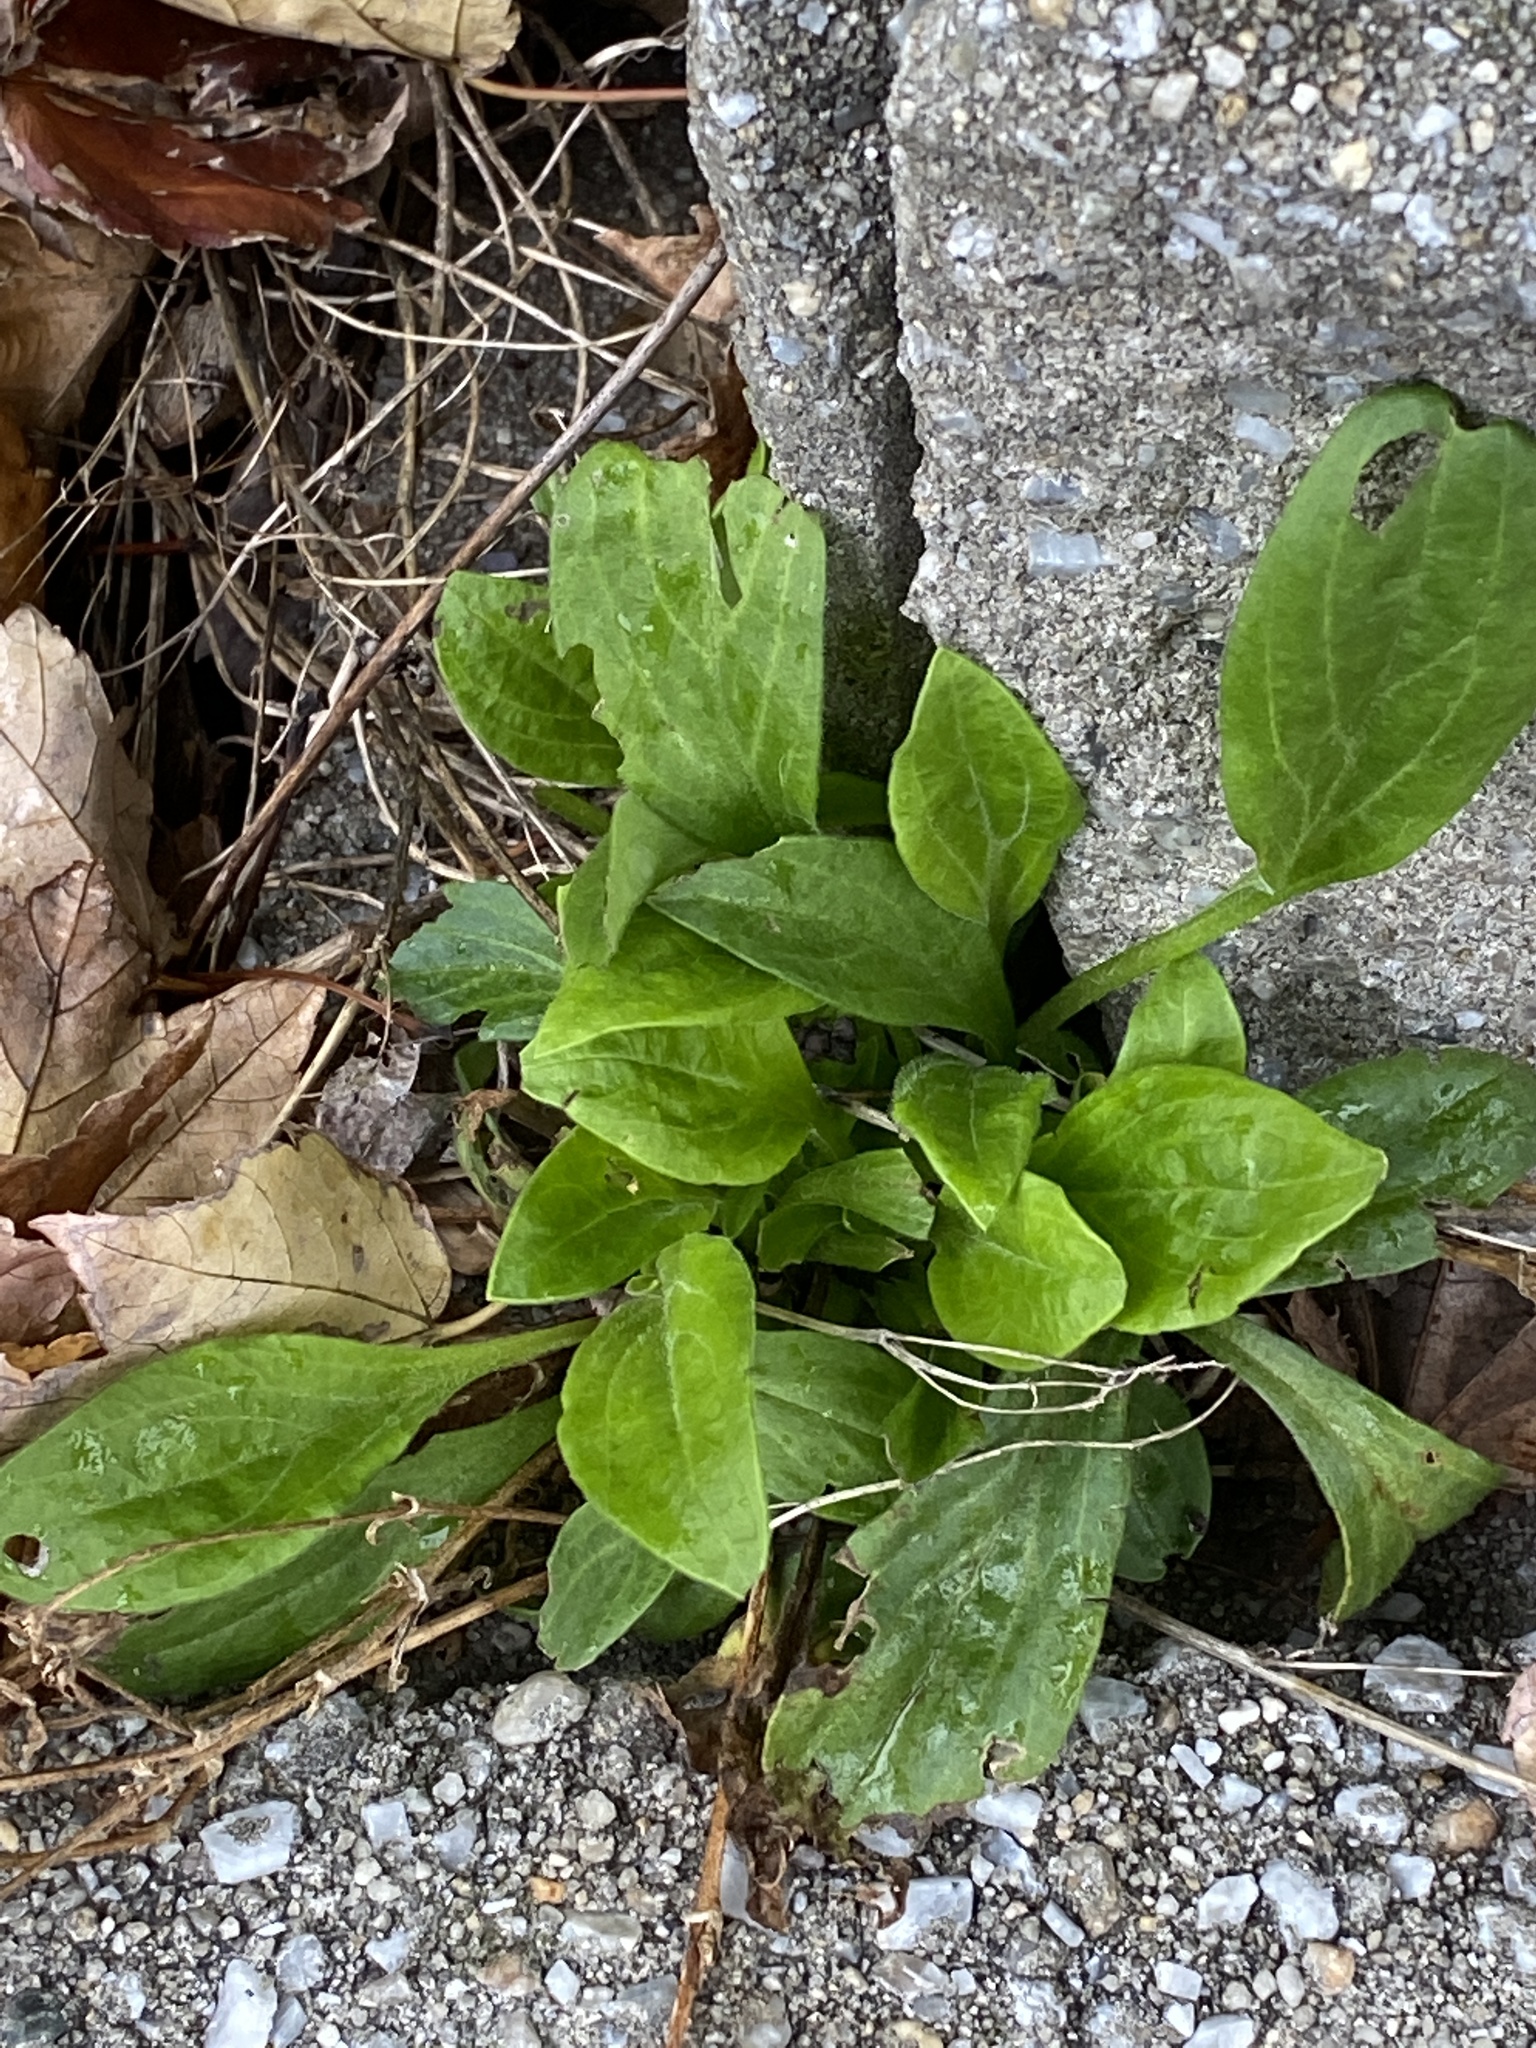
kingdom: Plantae
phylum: Tracheophyta
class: Magnoliopsida
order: Caryophyllales
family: Caryophyllaceae
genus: Silene
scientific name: Silene latifolia
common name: White campion
